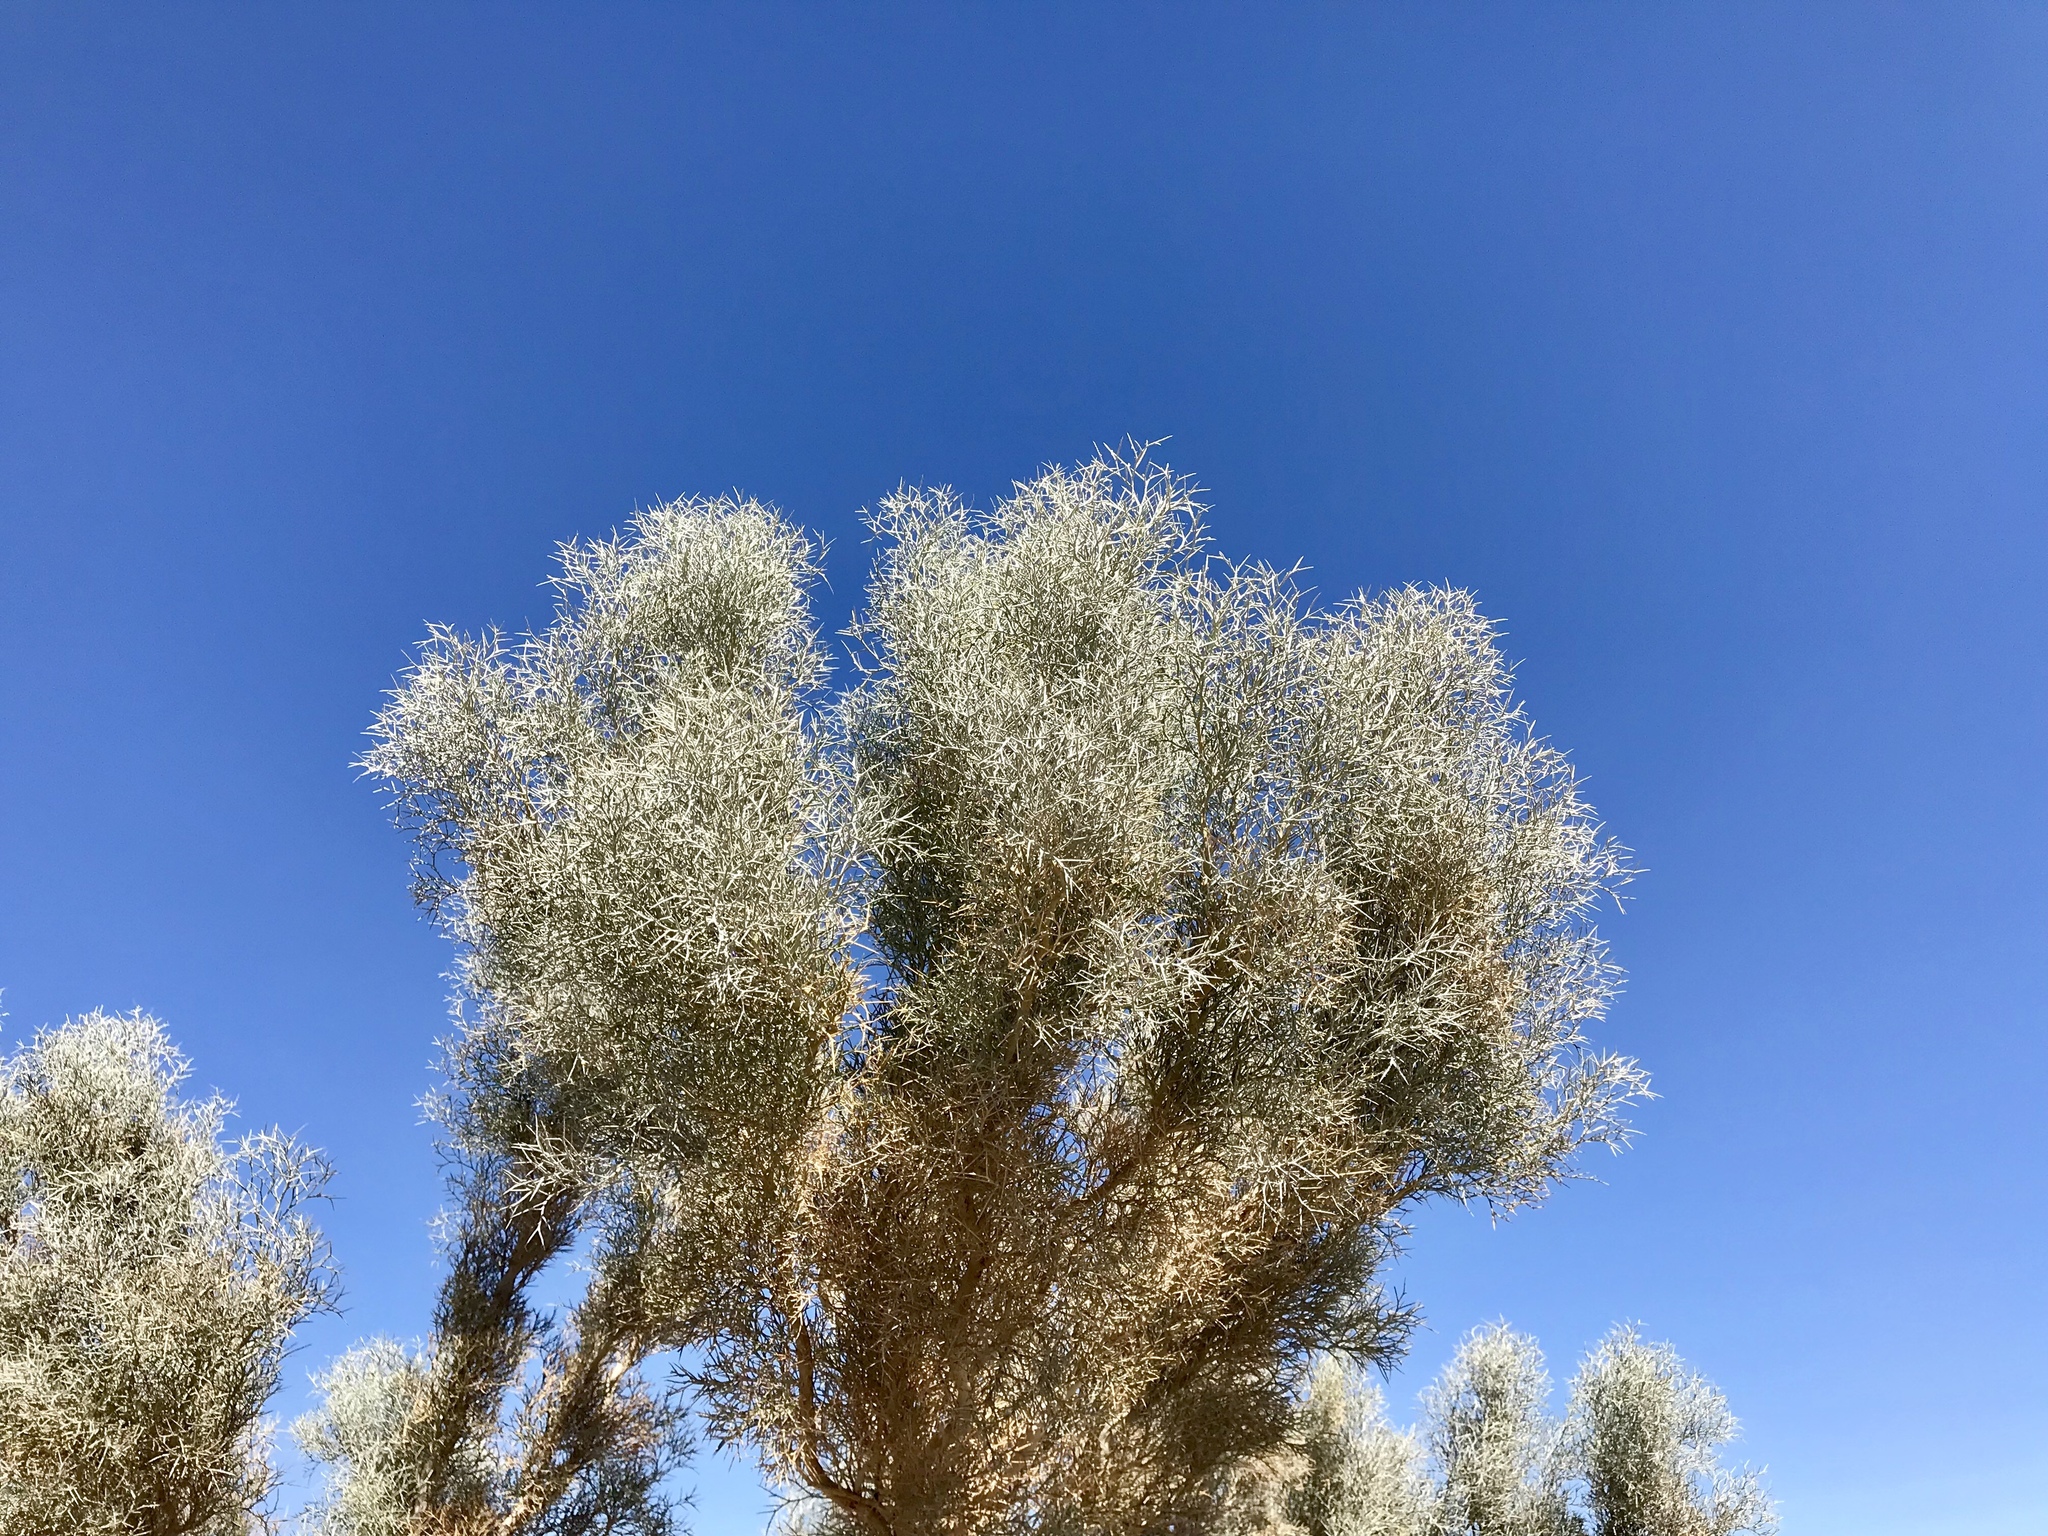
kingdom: Plantae
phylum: Tracheophyta
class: Magnoliopsida
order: Fabales
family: Fabaceae
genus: Psorothamnus
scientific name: Psorothamnus spinosus
